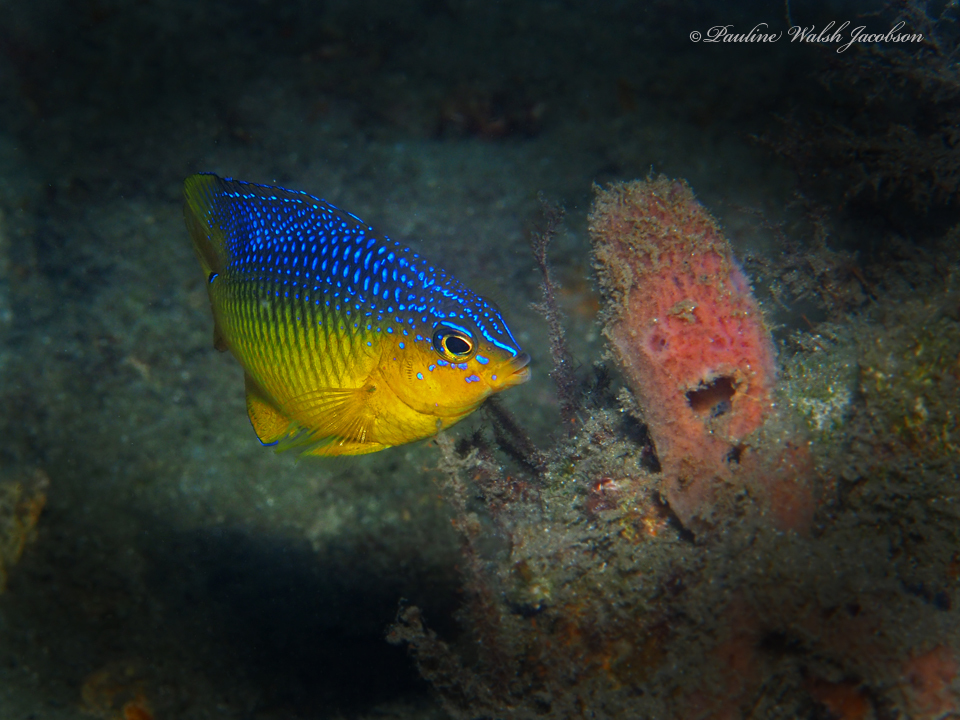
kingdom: Animalia
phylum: Chordata
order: Perciformes
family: Pomacentridae
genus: Stegastes
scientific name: Stegastes xanthurus
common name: Cocoa damselfish
